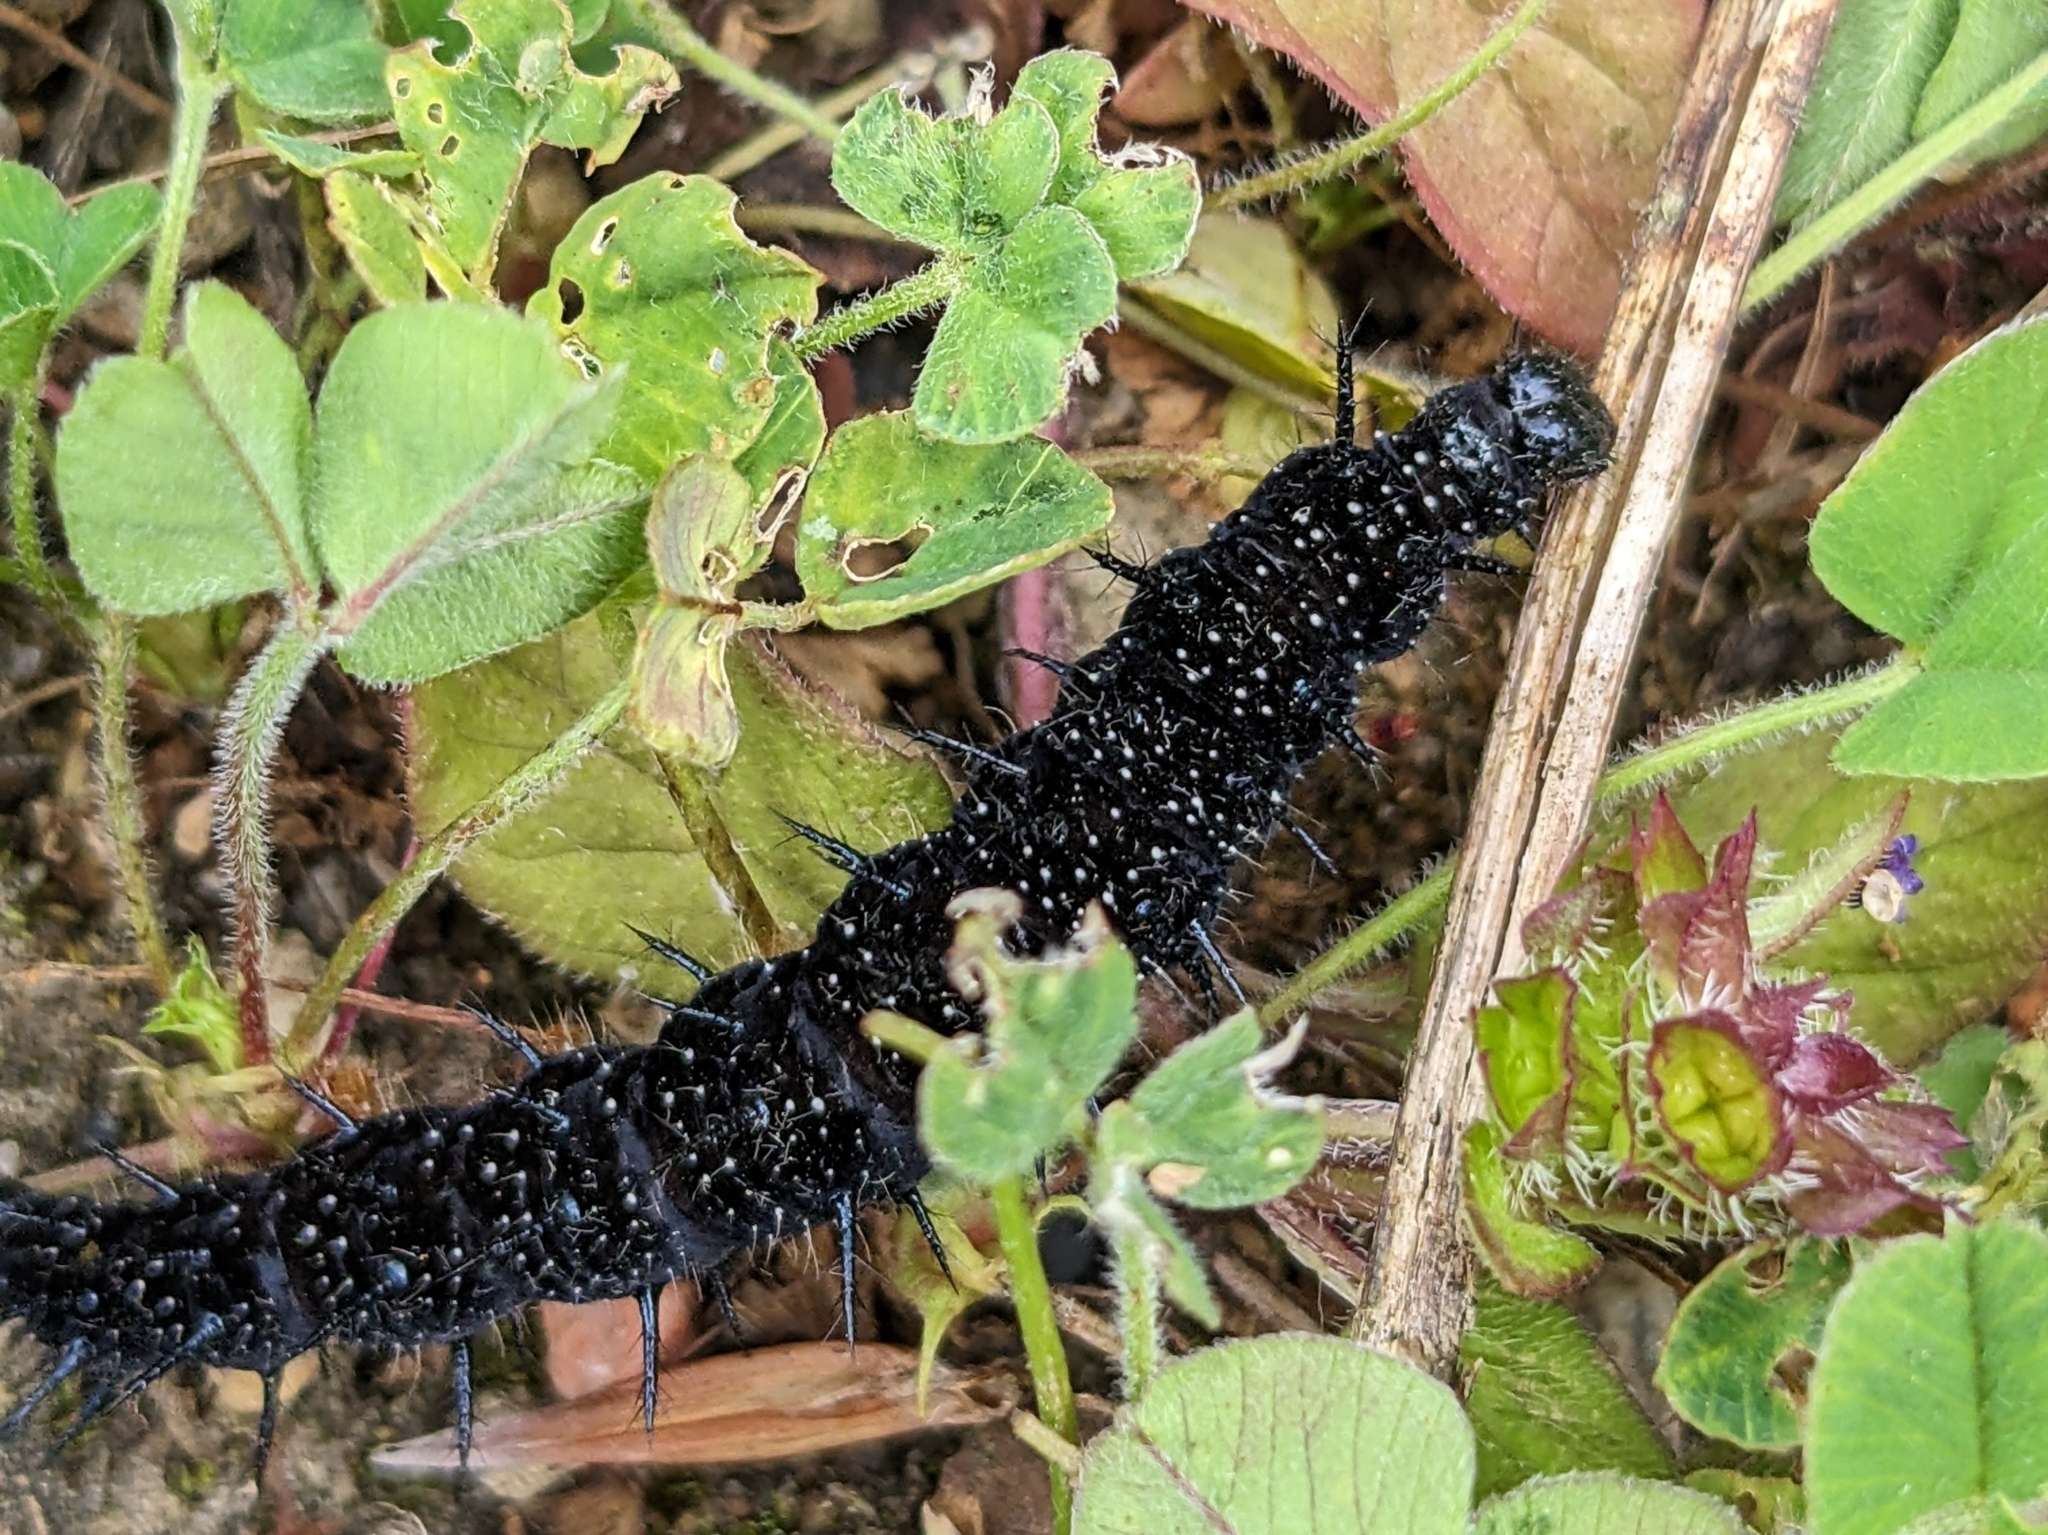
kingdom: Animalia
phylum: Arthropoda
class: Insecta
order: Lepidoptera
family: Nymphalidae
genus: Aglais
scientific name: Aglais io
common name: Peacock
